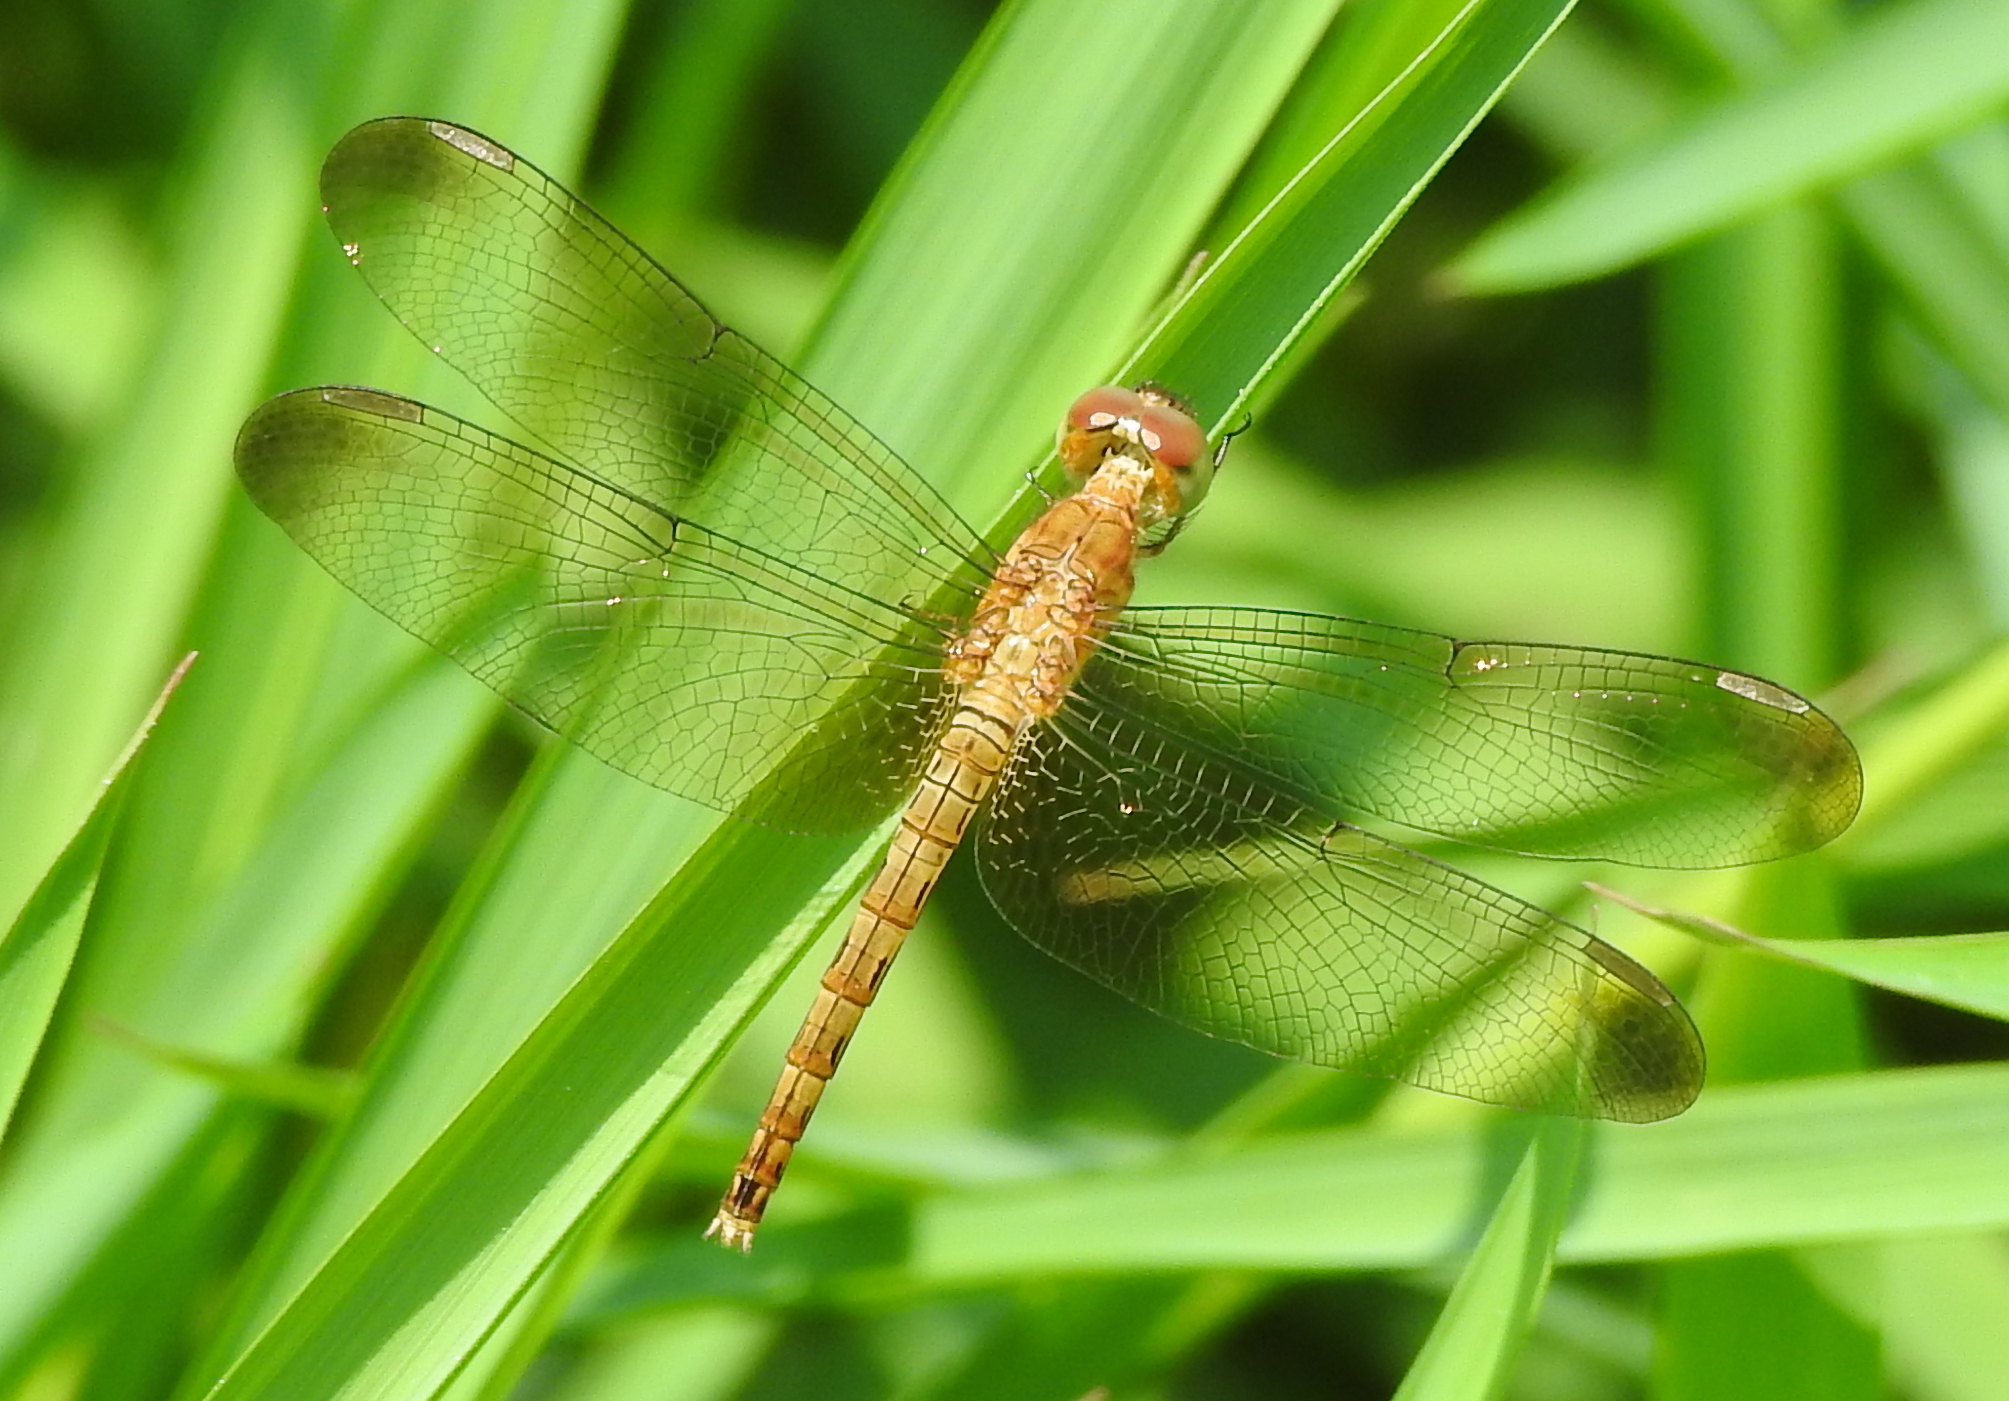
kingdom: Animalia
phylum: Arthropoda
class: Insecta
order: Odonata
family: Libellulidae
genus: Neurothemis
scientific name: Neurothemis fluctuans
